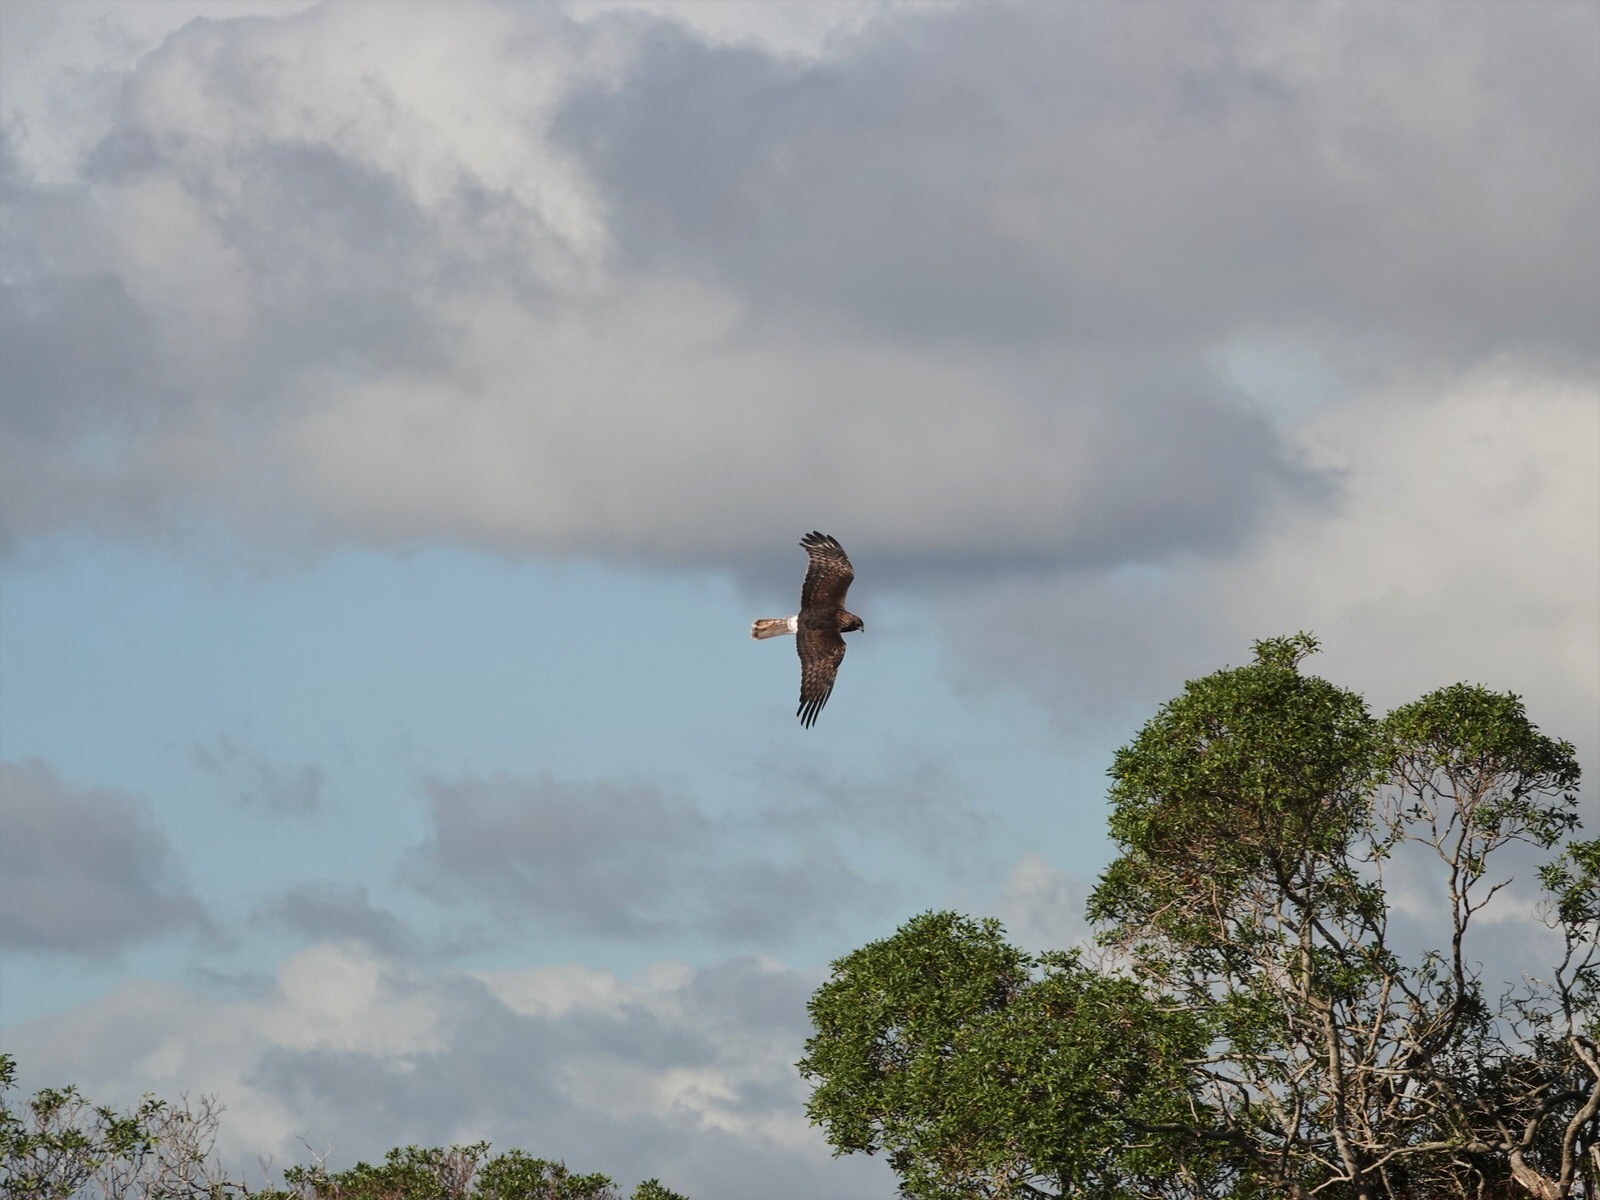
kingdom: Animalia
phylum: Chordata
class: Aves
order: Accipitriformes
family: Accipitridae
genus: Circus
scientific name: Circus approximans
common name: Swamp harrier
